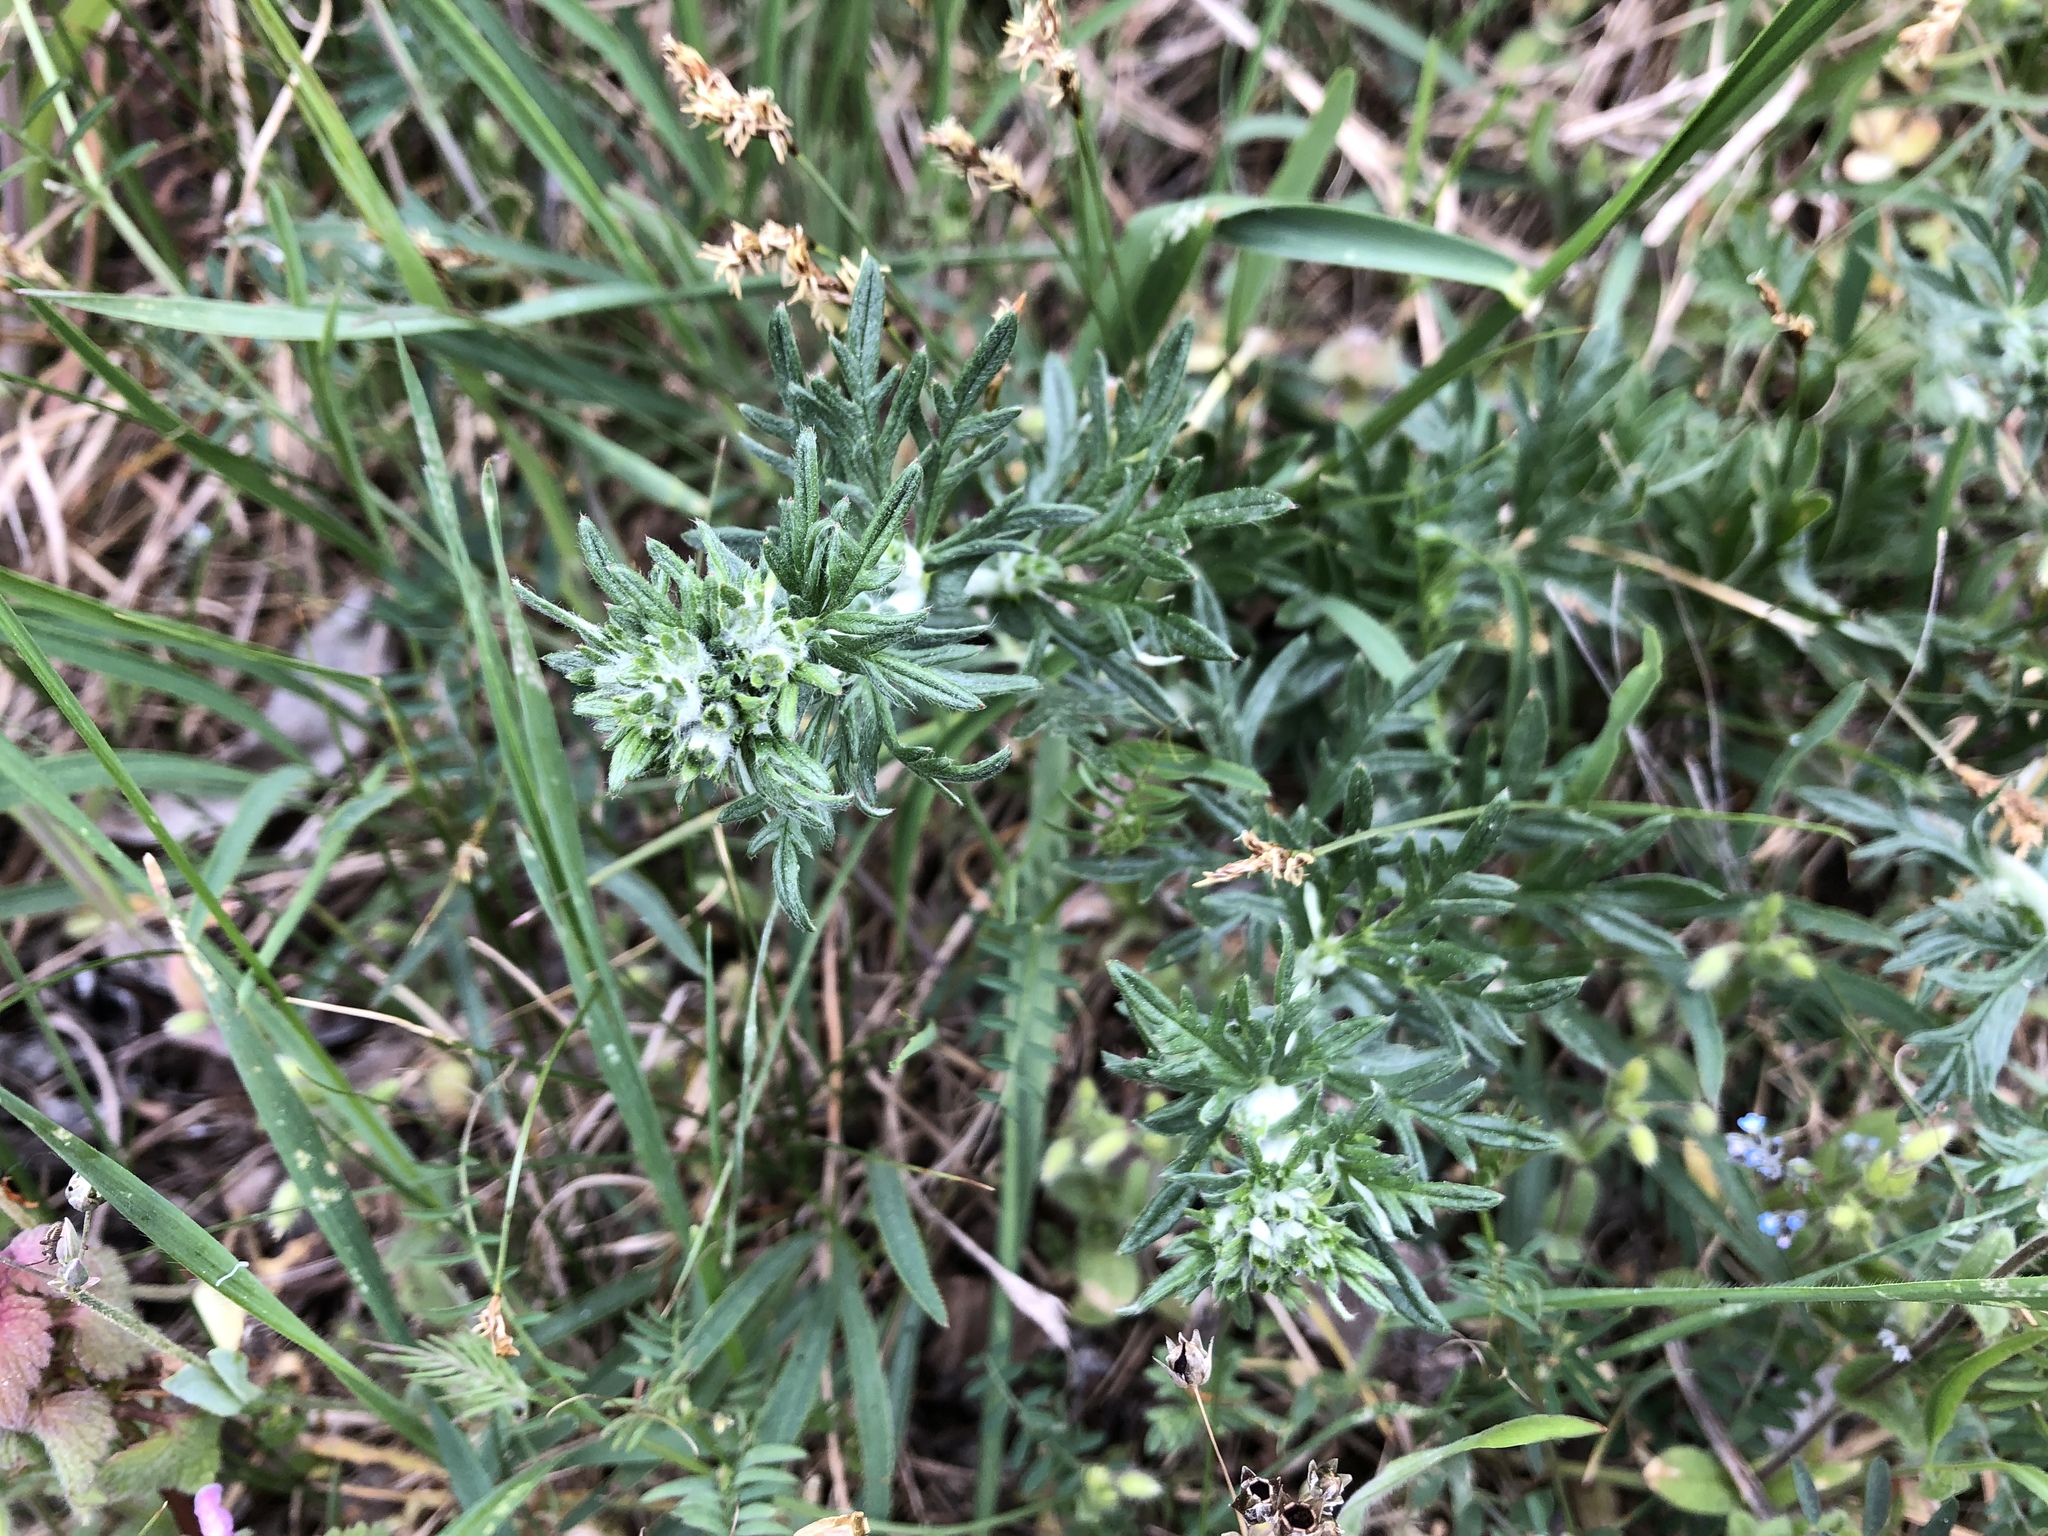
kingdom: Plantae
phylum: Tracheophyta
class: Magnoliopsida
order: Rosales
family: Rosaceae
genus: Potentilla
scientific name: Potentilla argentea
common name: Hoary cinquefoil
